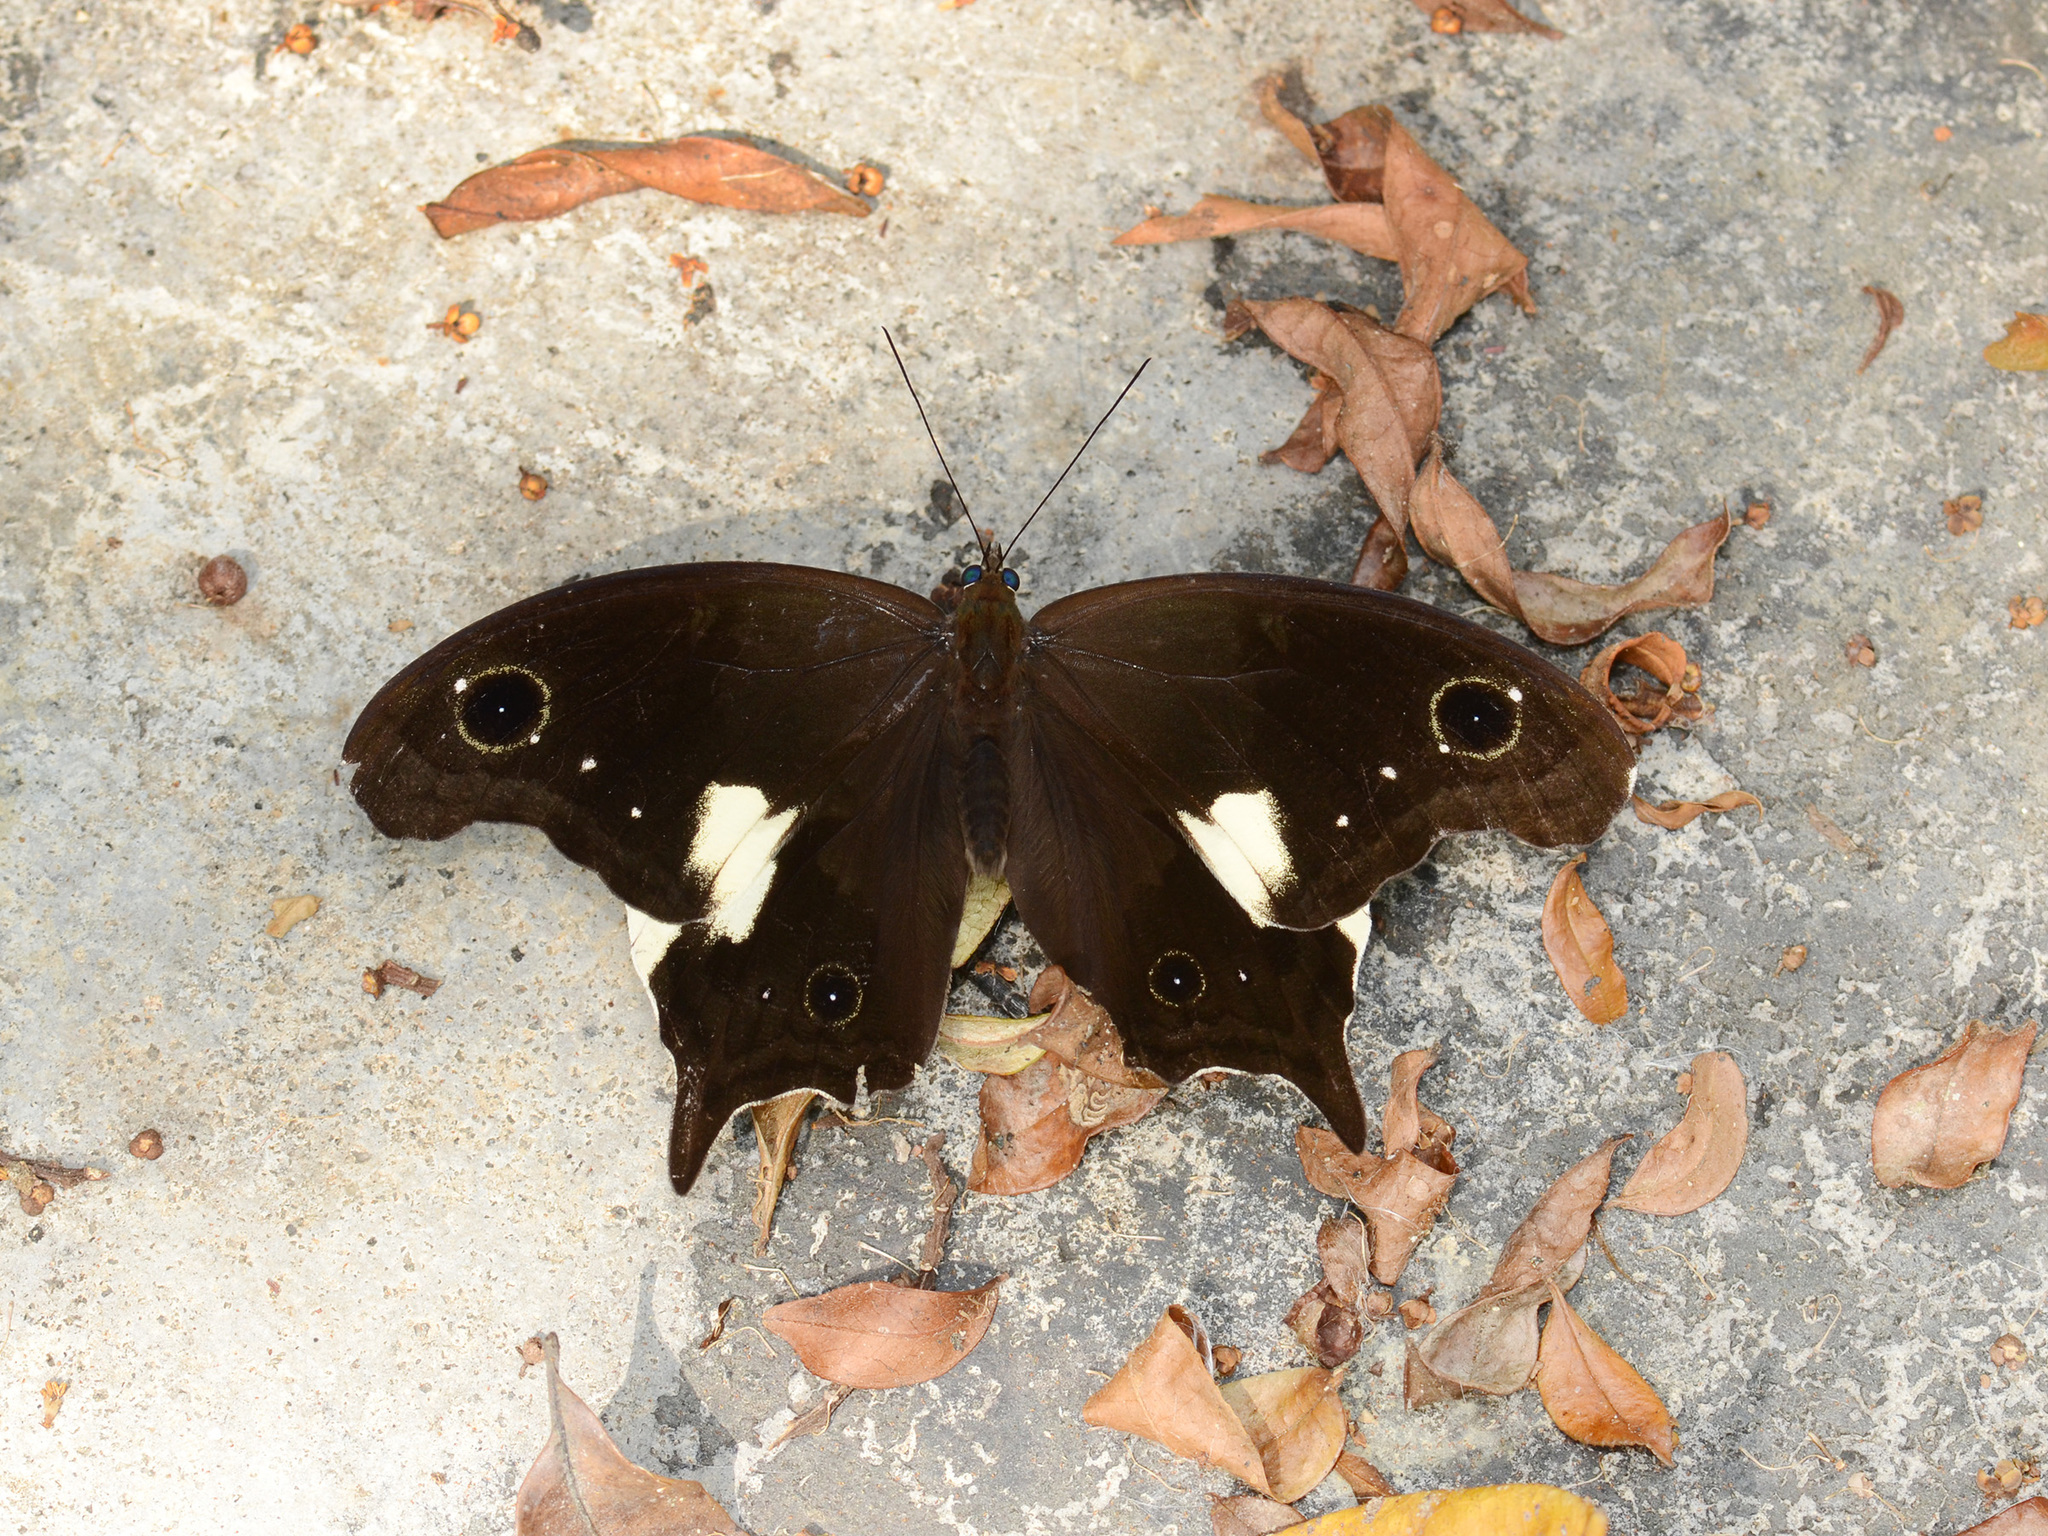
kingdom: Animalia
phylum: Arthropoda
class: Insecta
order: Lepidoptera
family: Nymphalidae
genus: Neorina
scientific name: Neorina lowii
